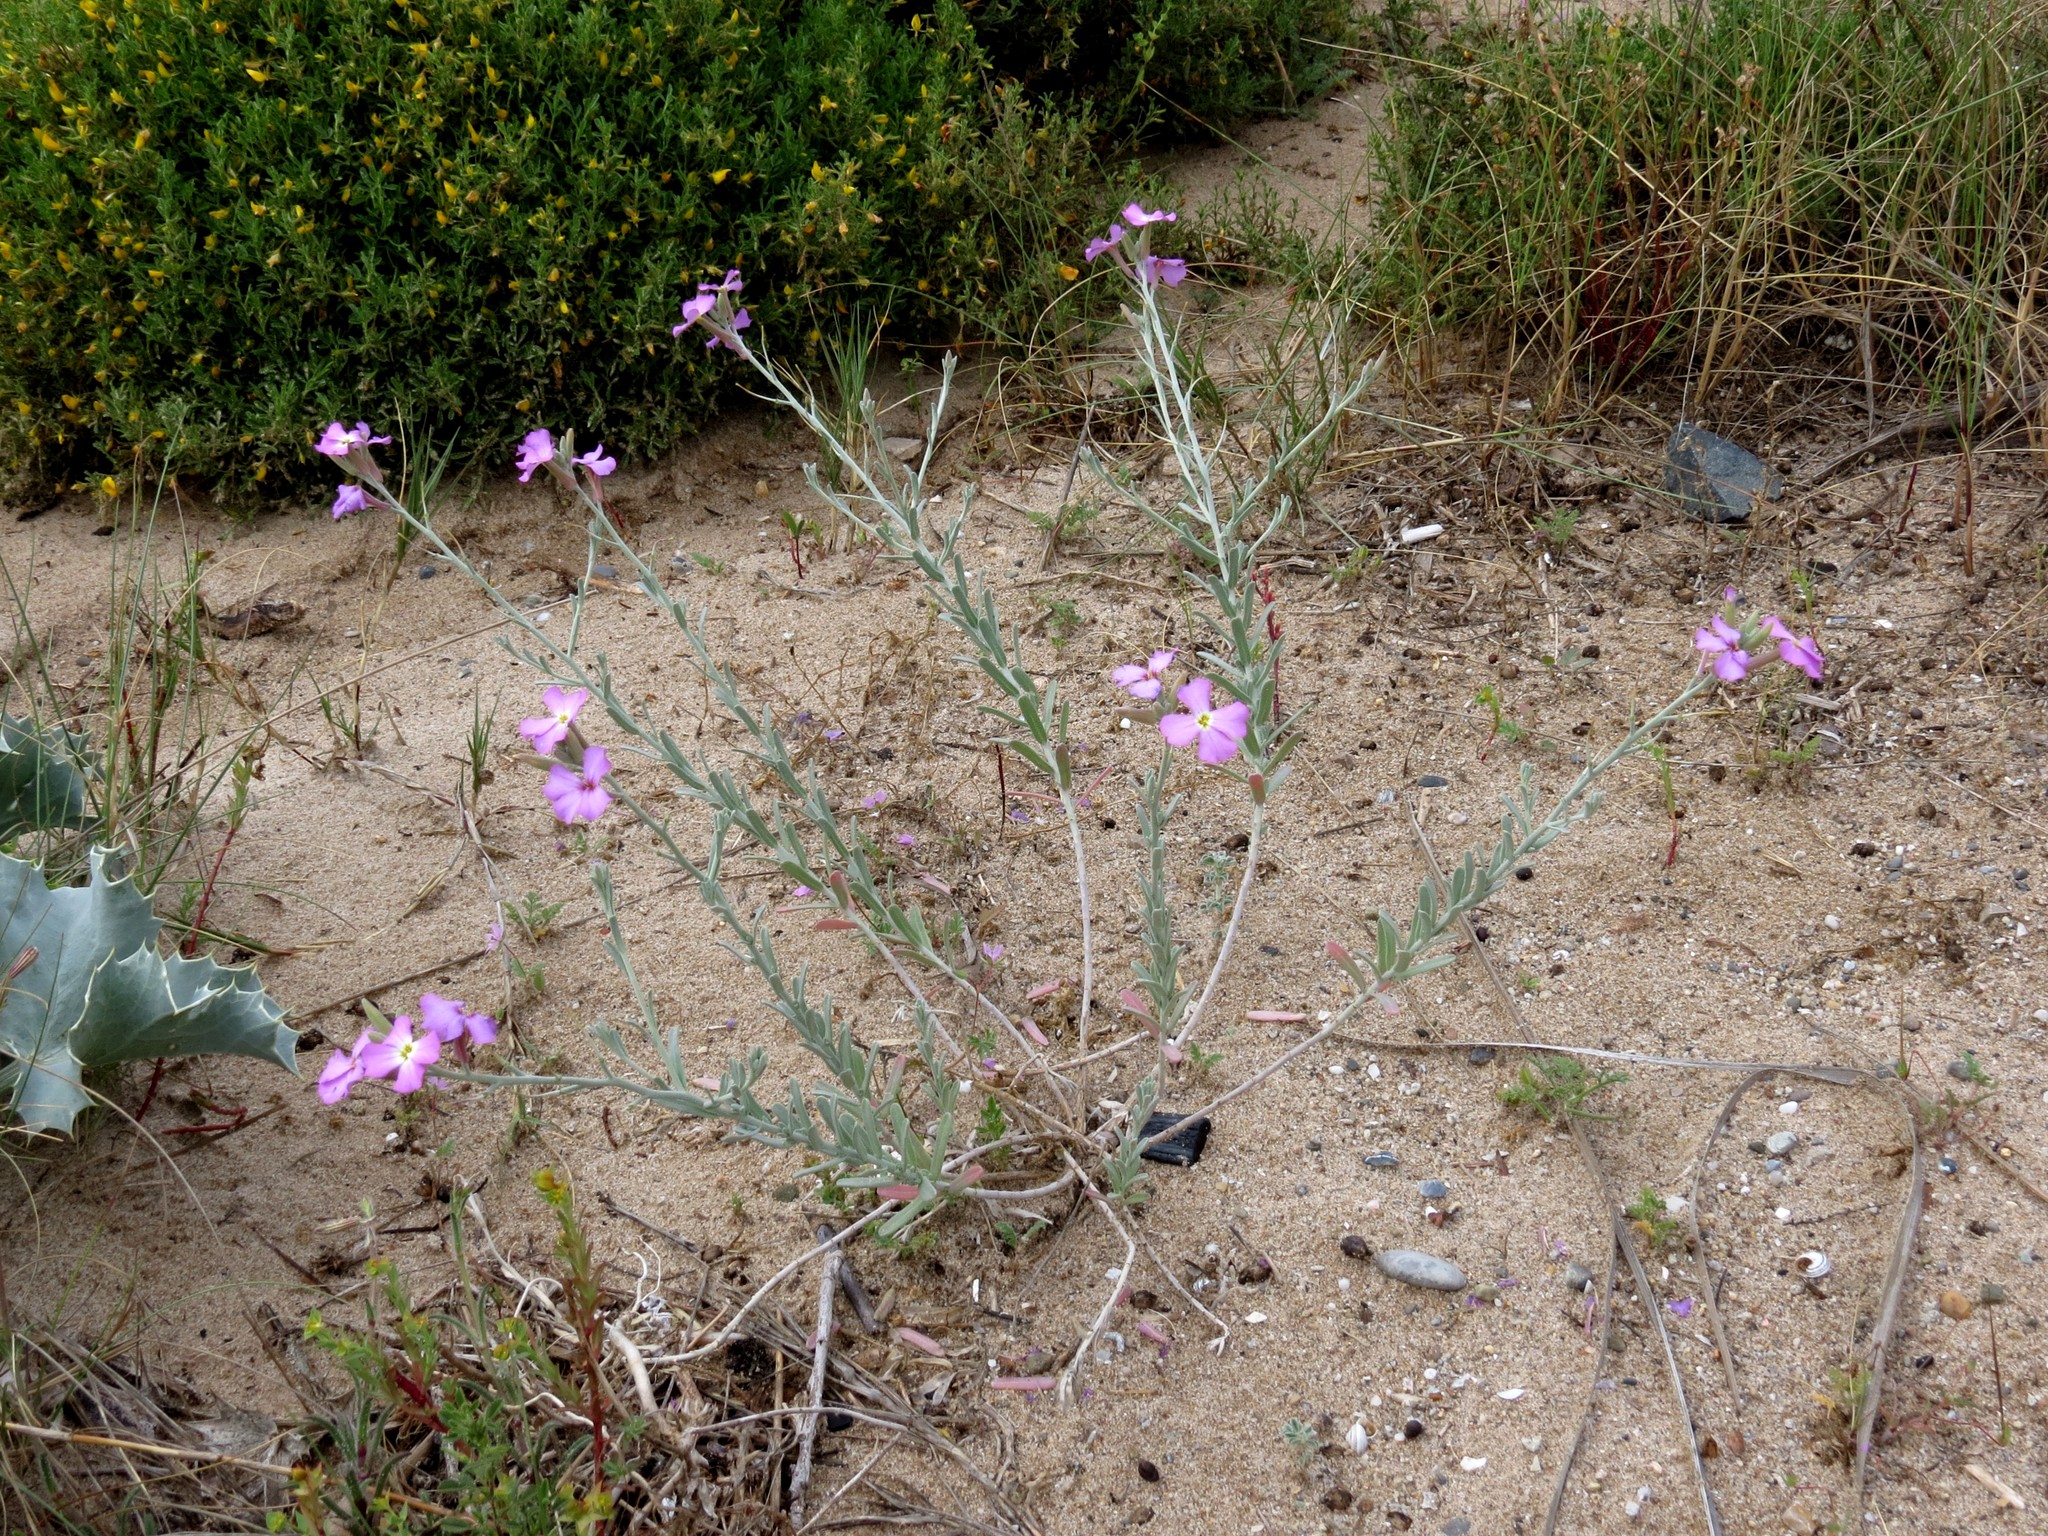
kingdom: Plantae
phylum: Tracheophyta
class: Magnoliopsida
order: Brassicales
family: Brassicaceae
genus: Marcuskochia
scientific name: Marcuskochia littorea
